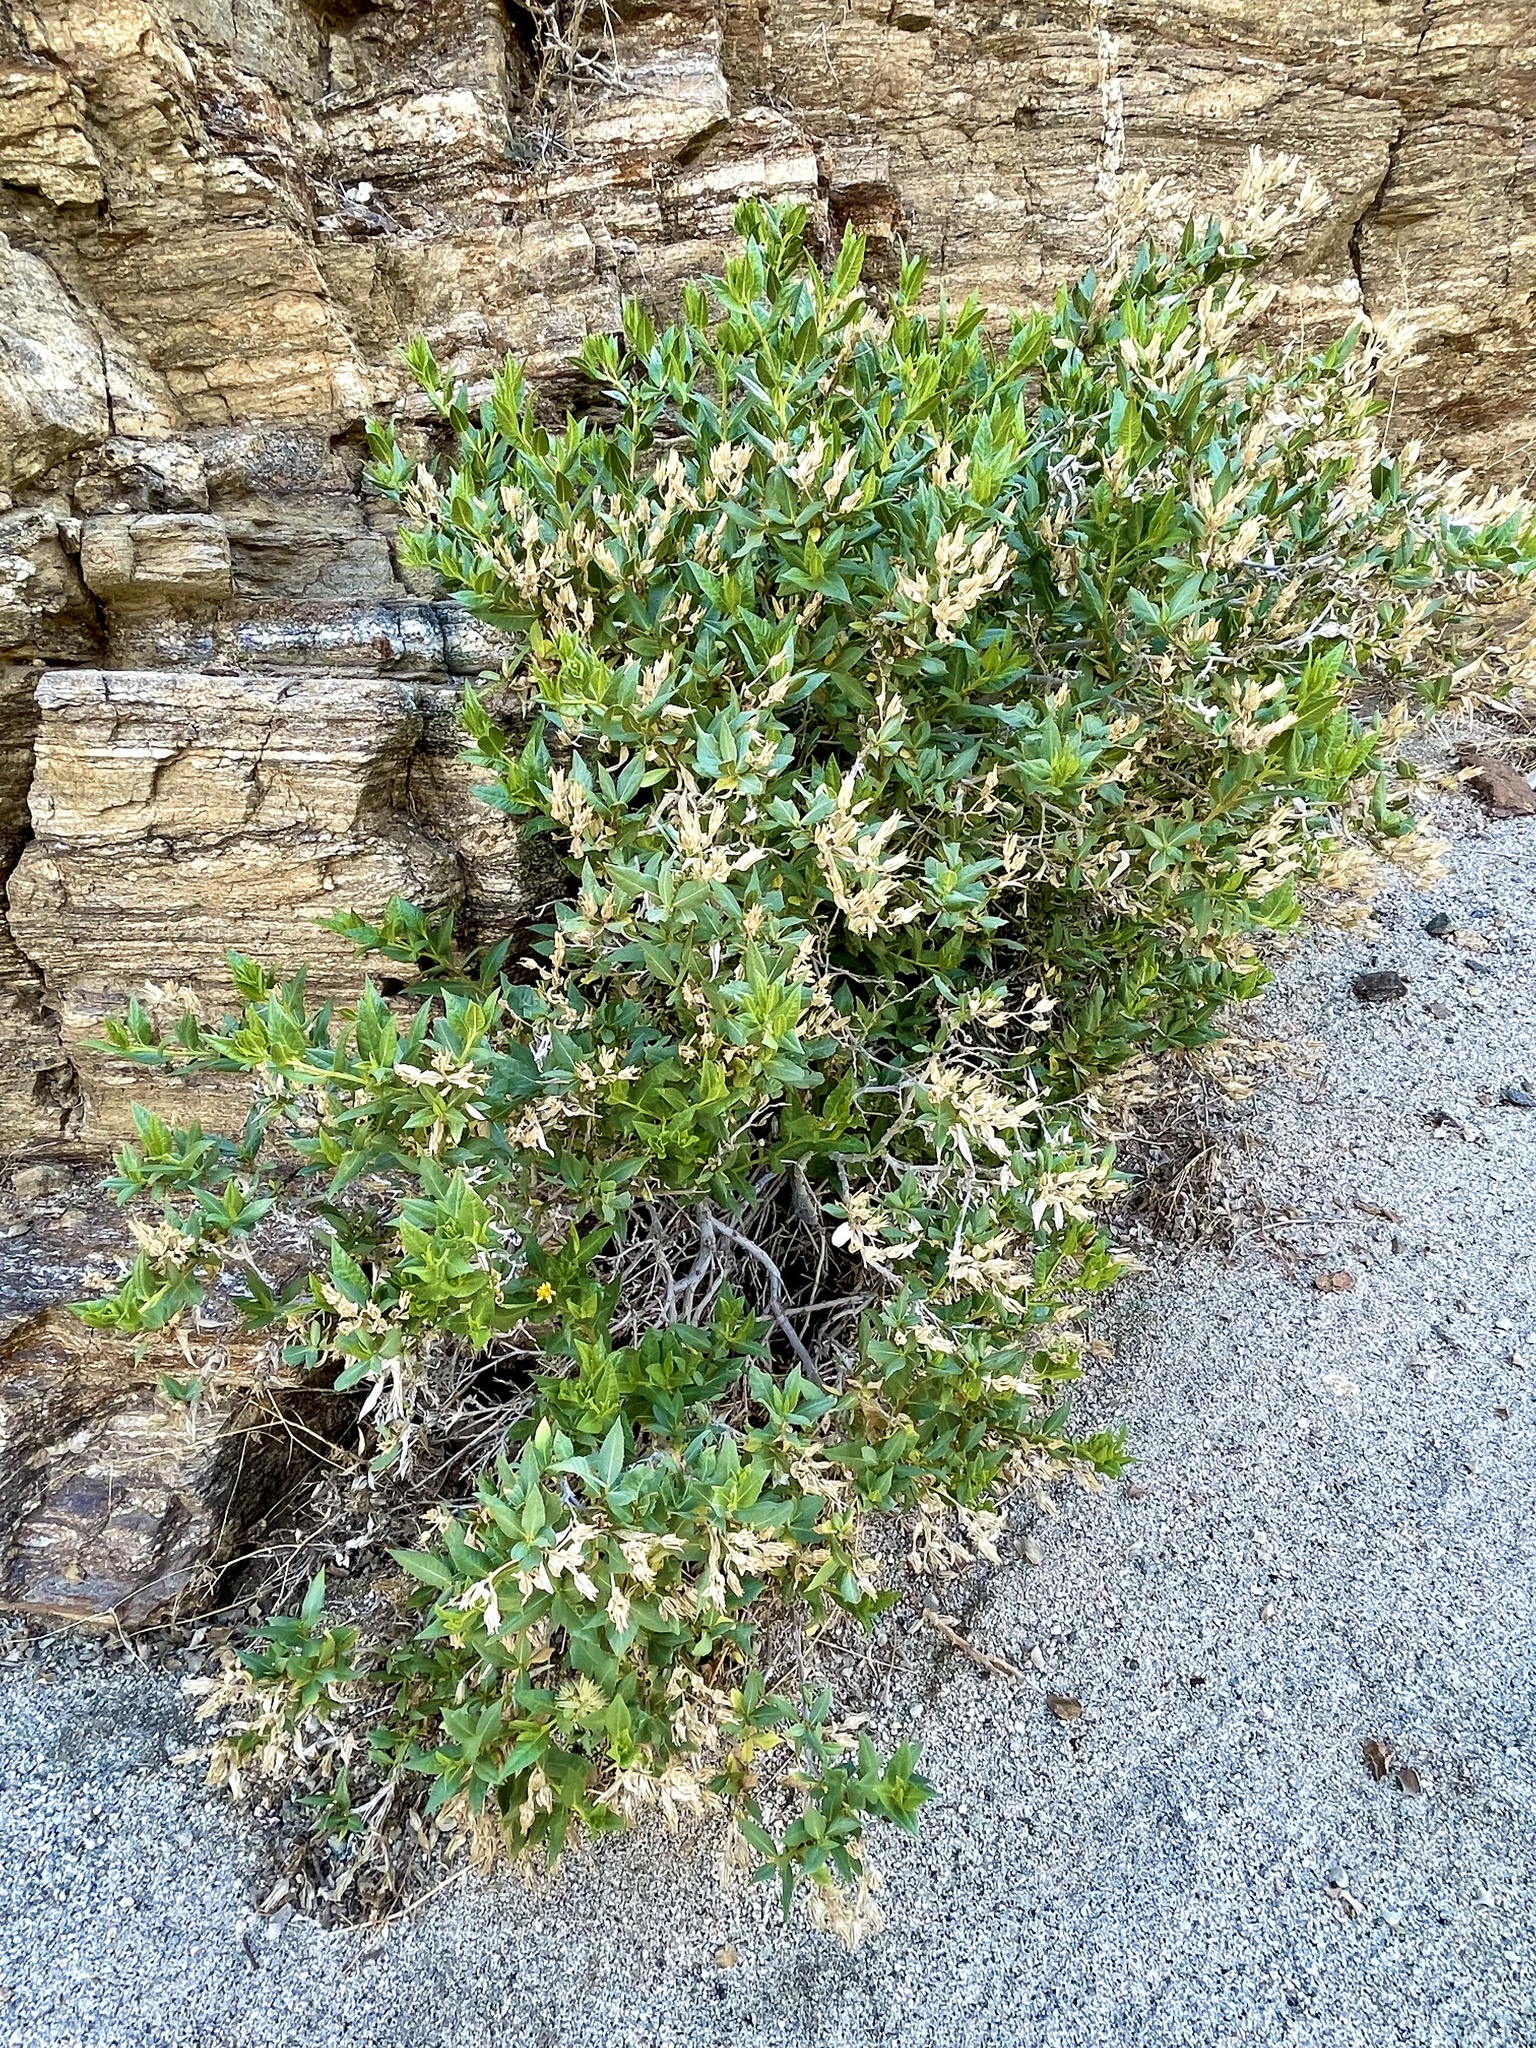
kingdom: Plantae
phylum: Tracheophyta
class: Magnoliopsida
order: Asterales
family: Asteraceae
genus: Trixis
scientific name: Trixis californica
